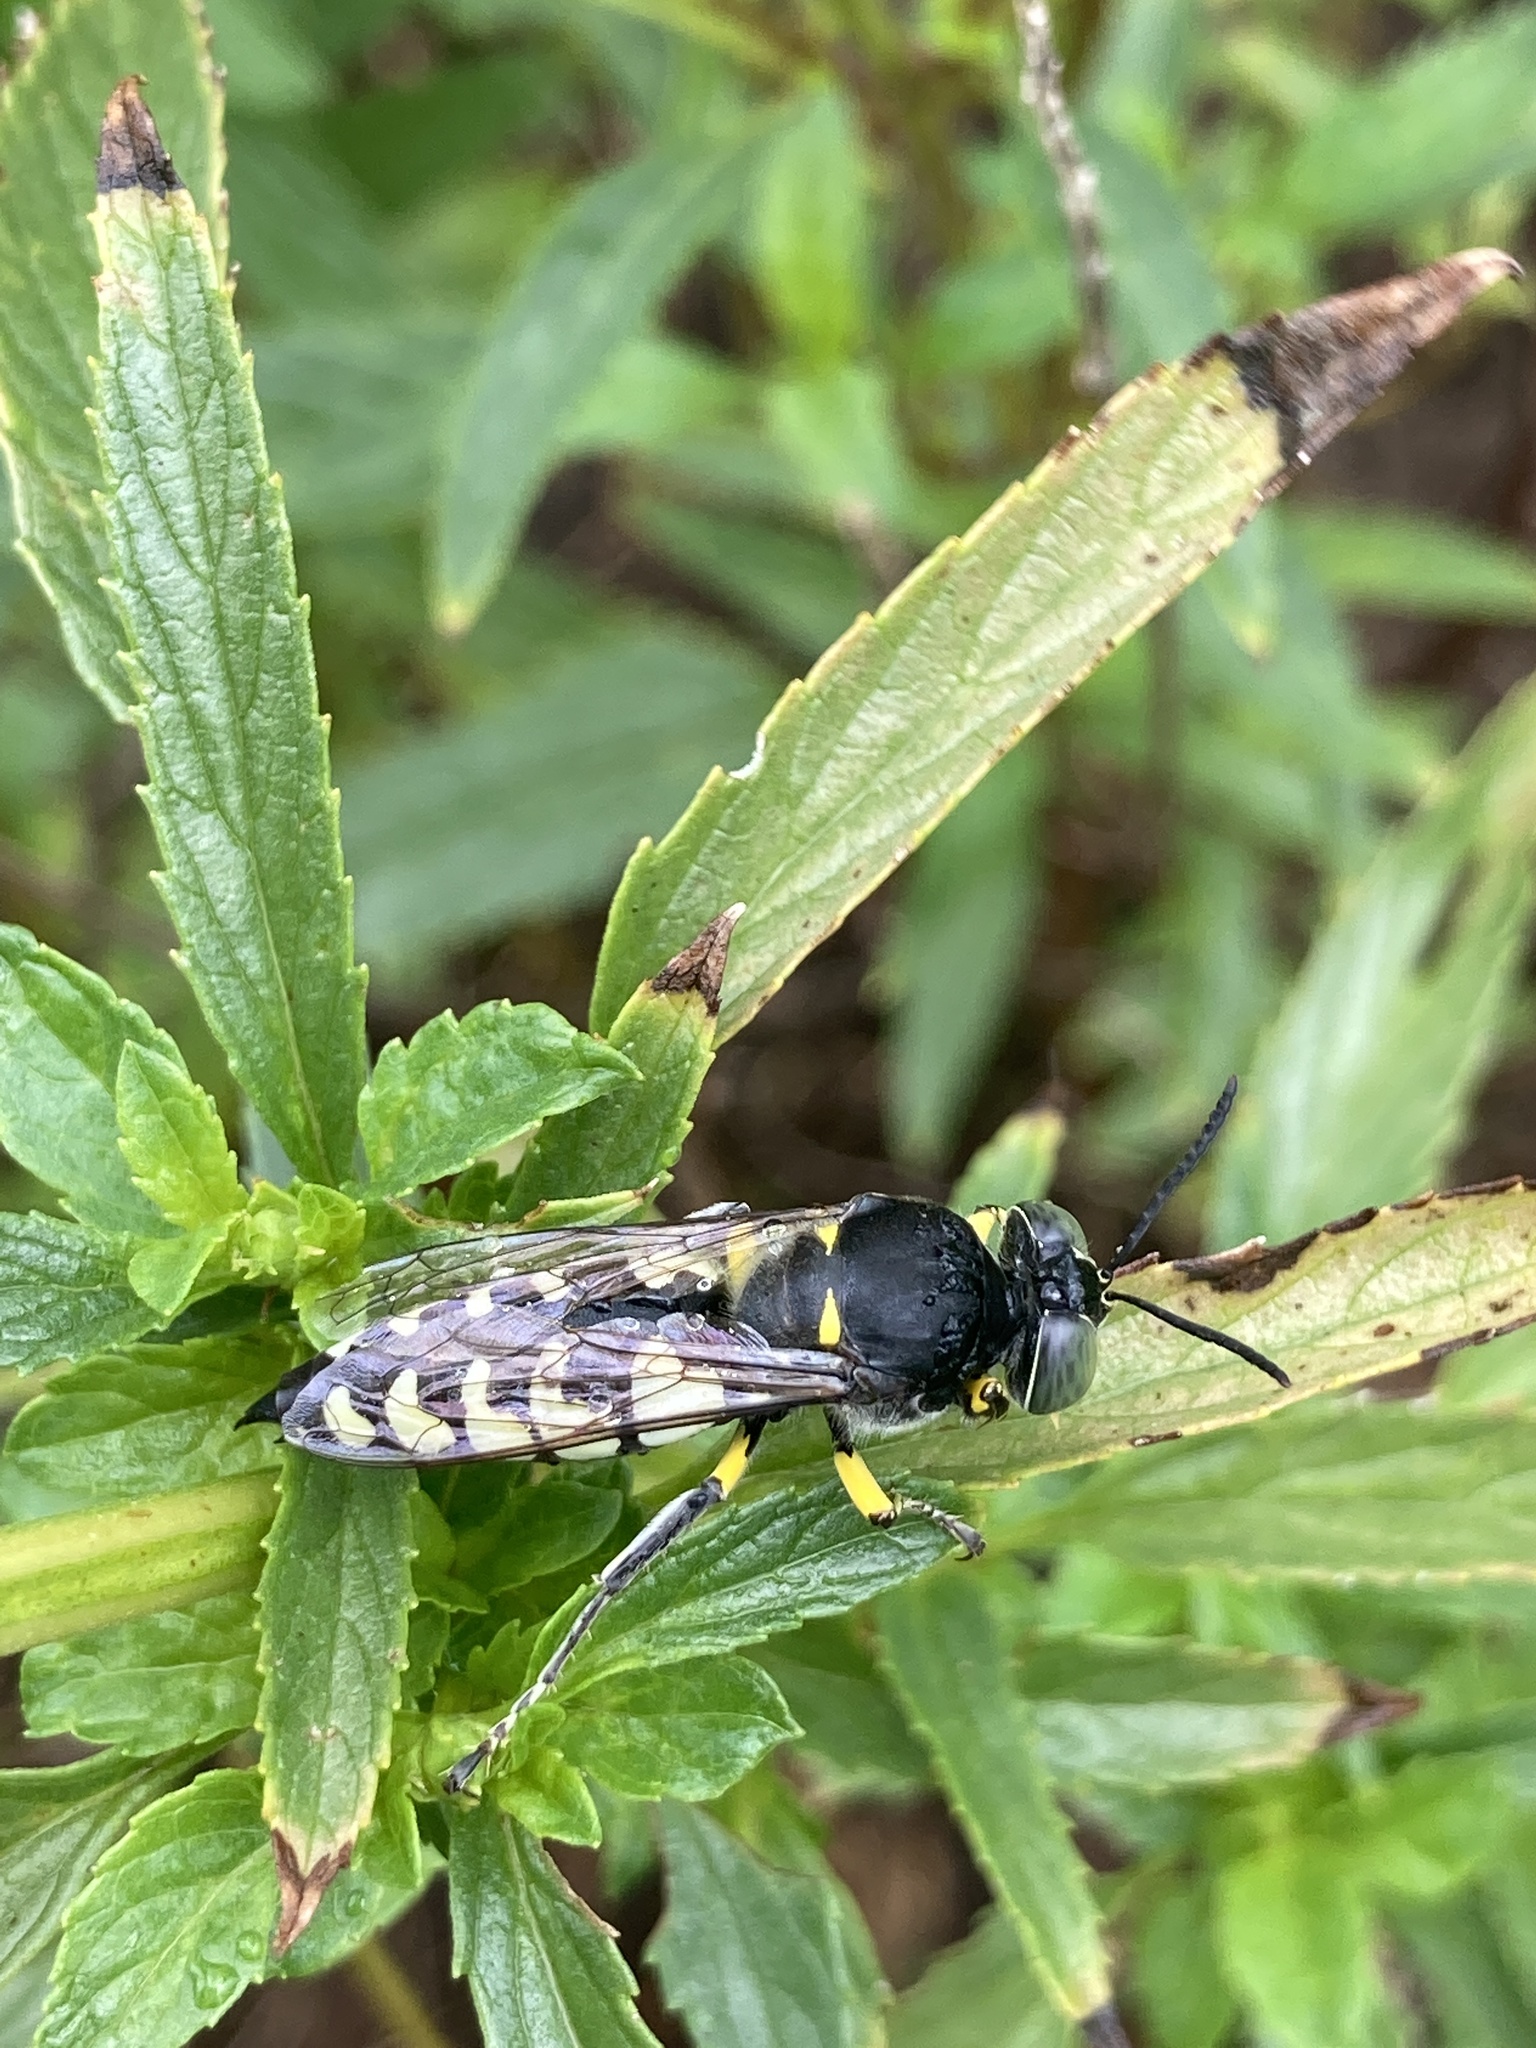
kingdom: Animalia
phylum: Arthropoda
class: Insecta
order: Hymenoptera
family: Crabronidae
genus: Stictia
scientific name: Stictia flexuosa
